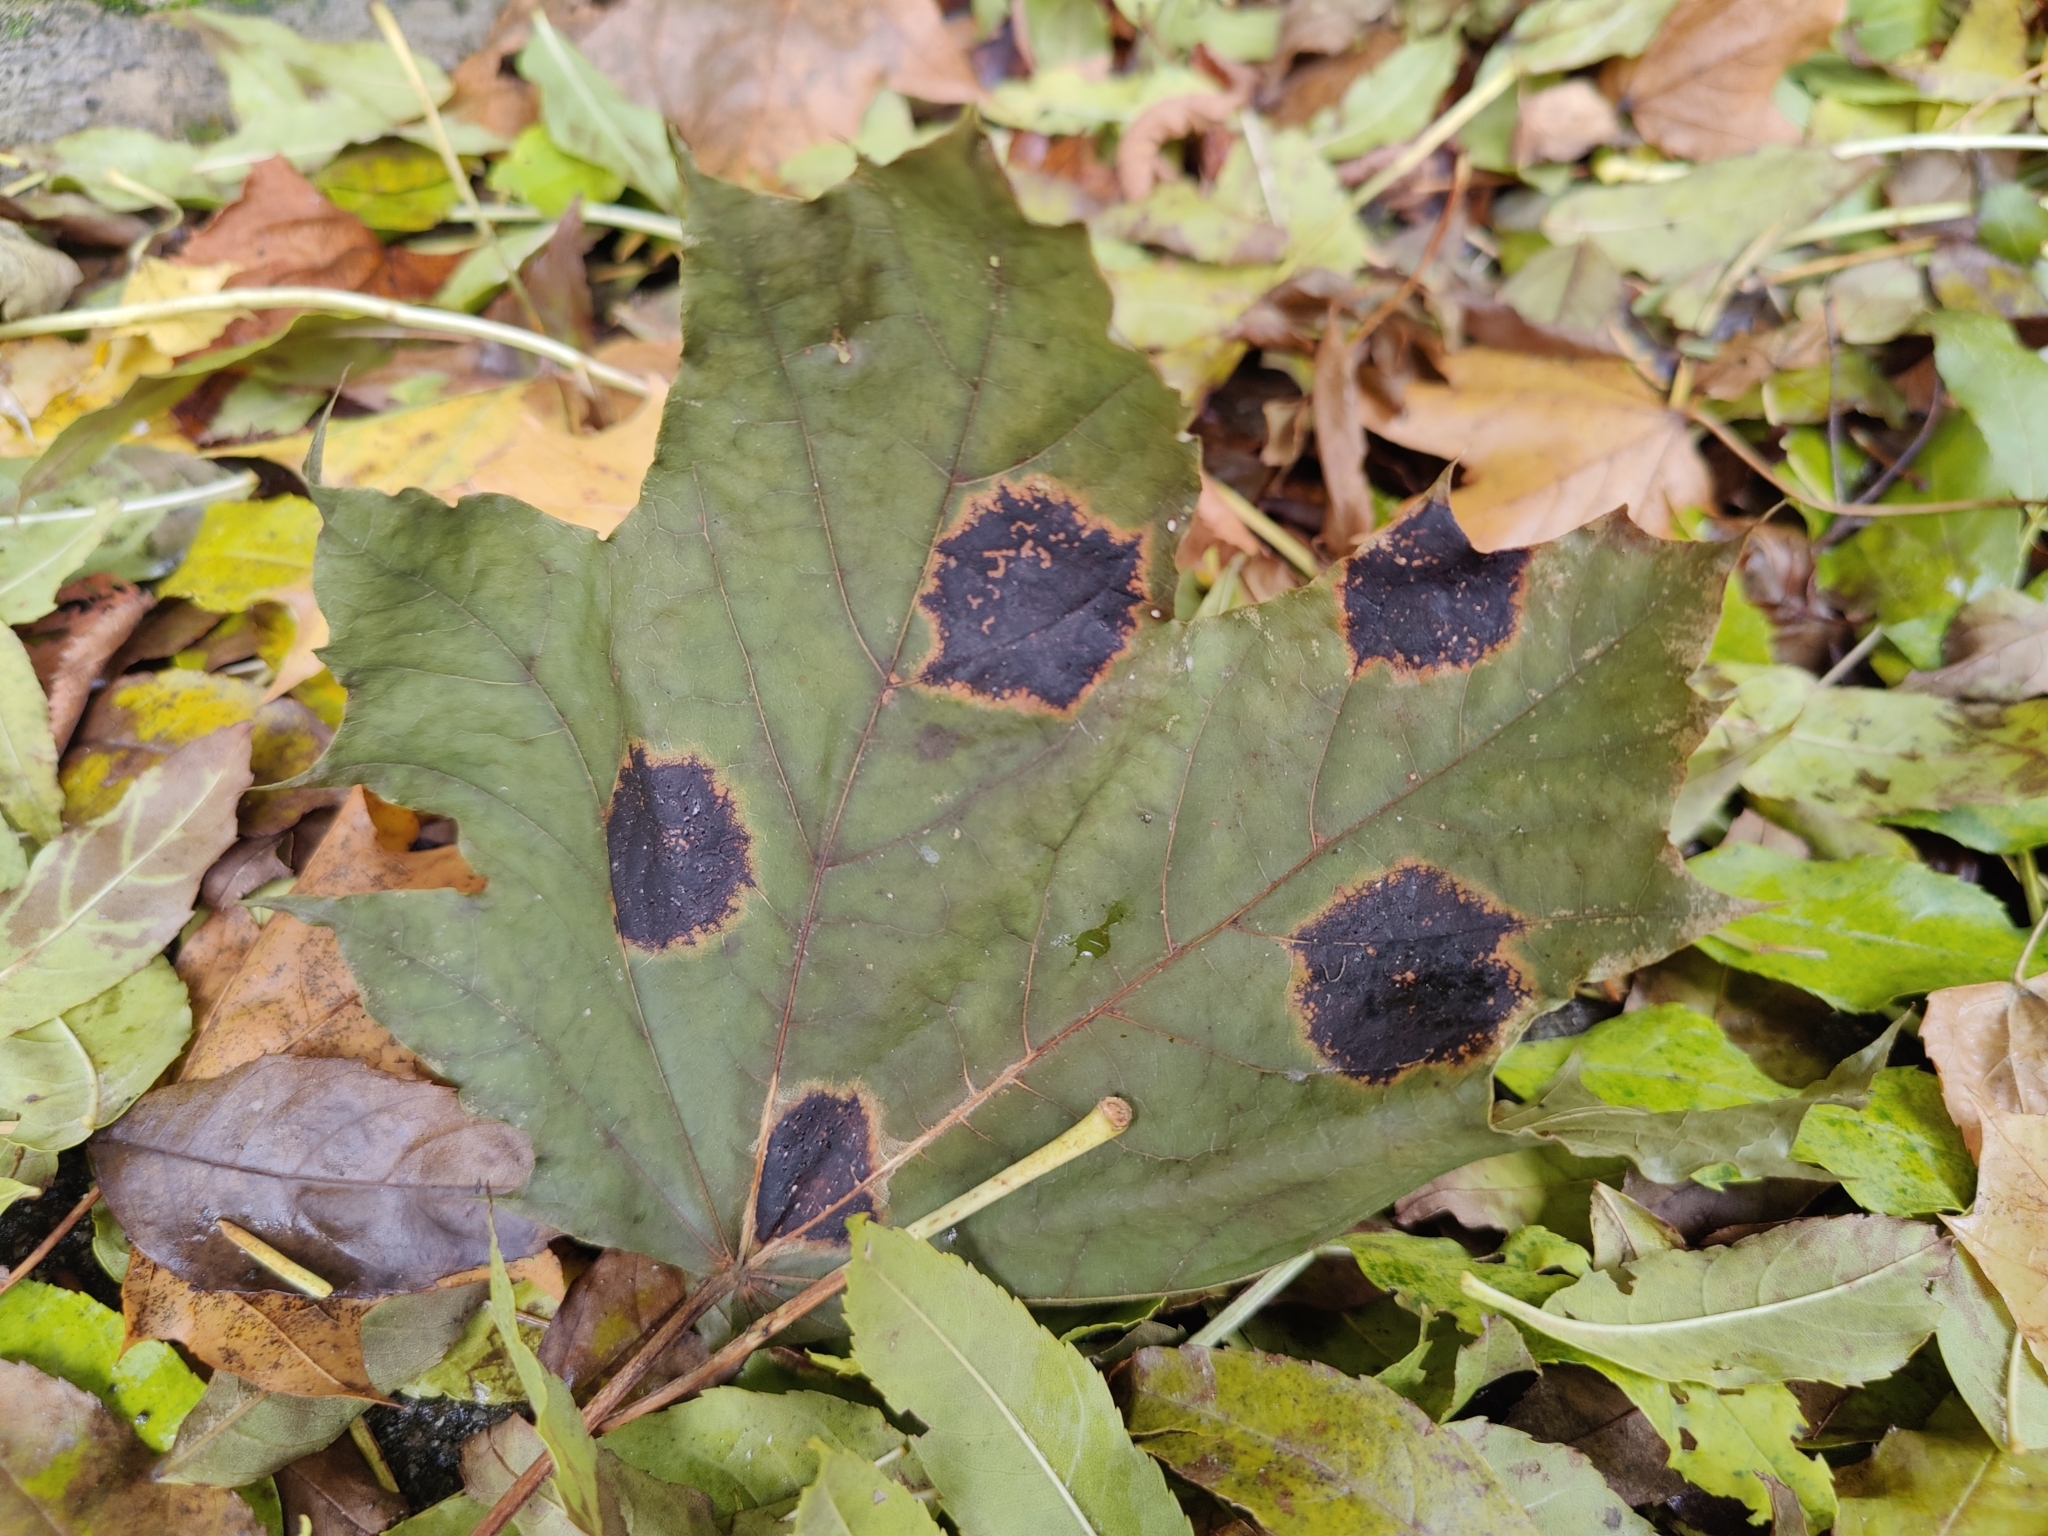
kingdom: Fungi
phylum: Ascomycota
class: Leotiomycetes
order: Rhytismatales
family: Rhytismataceae
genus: Rhytisma
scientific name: Rhytisma acerinum
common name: European tar spot
